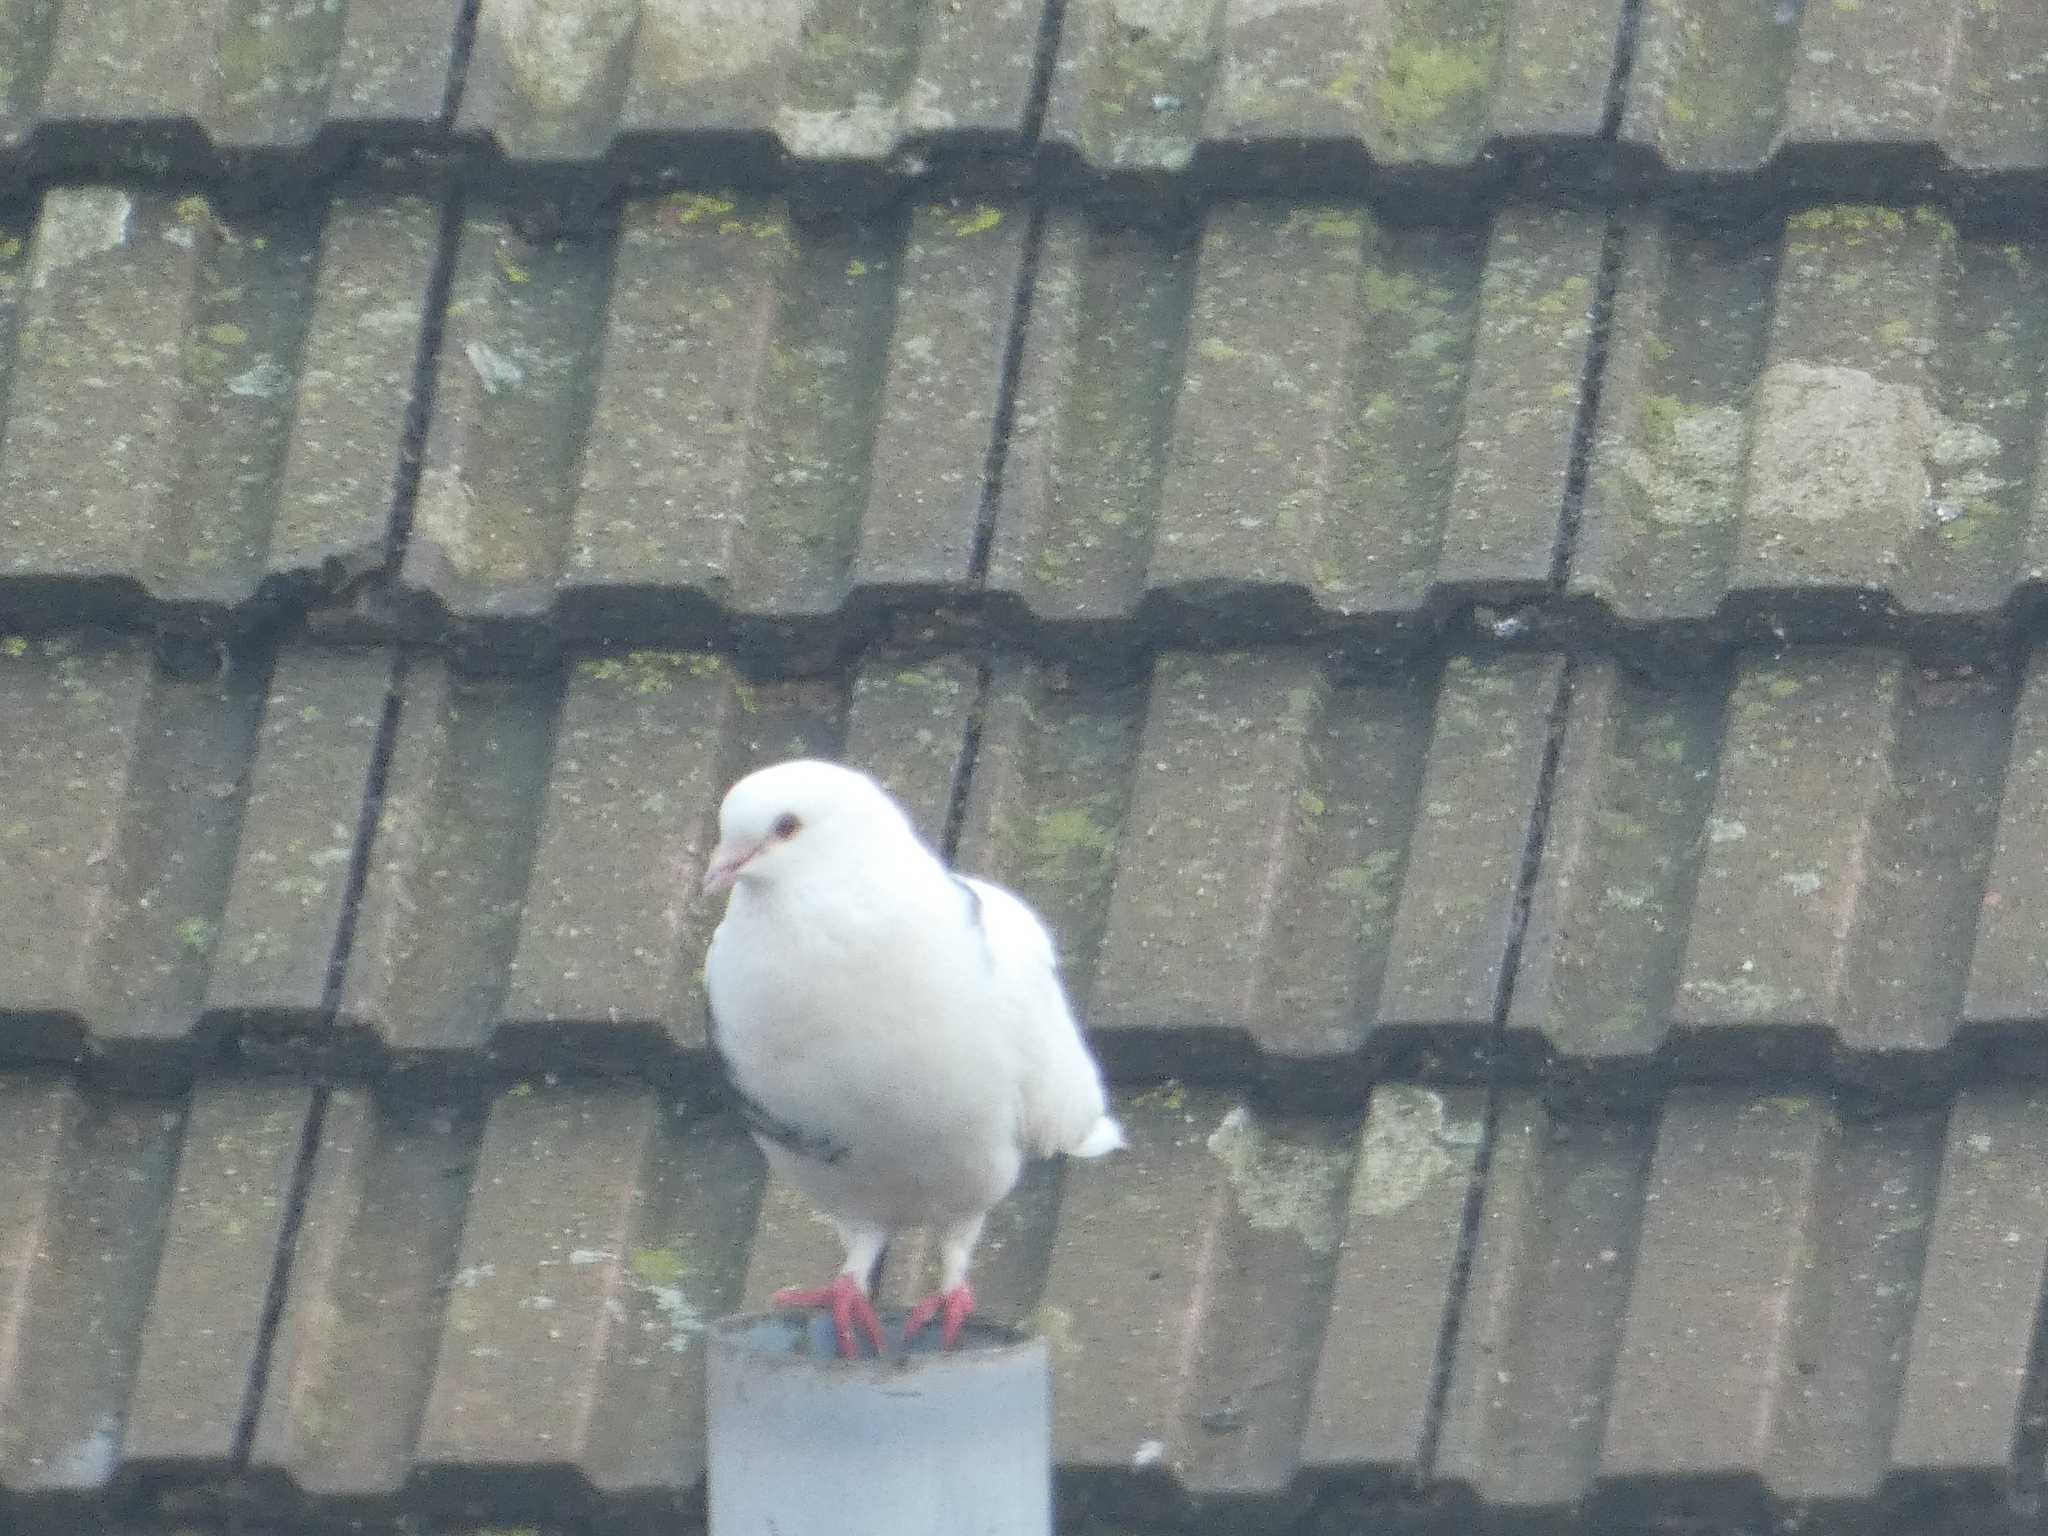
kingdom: Animalia
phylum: Chordata
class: Aves
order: Columbiformes
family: Columbidae
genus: Columba
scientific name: Columba livia
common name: Rock pigeon
